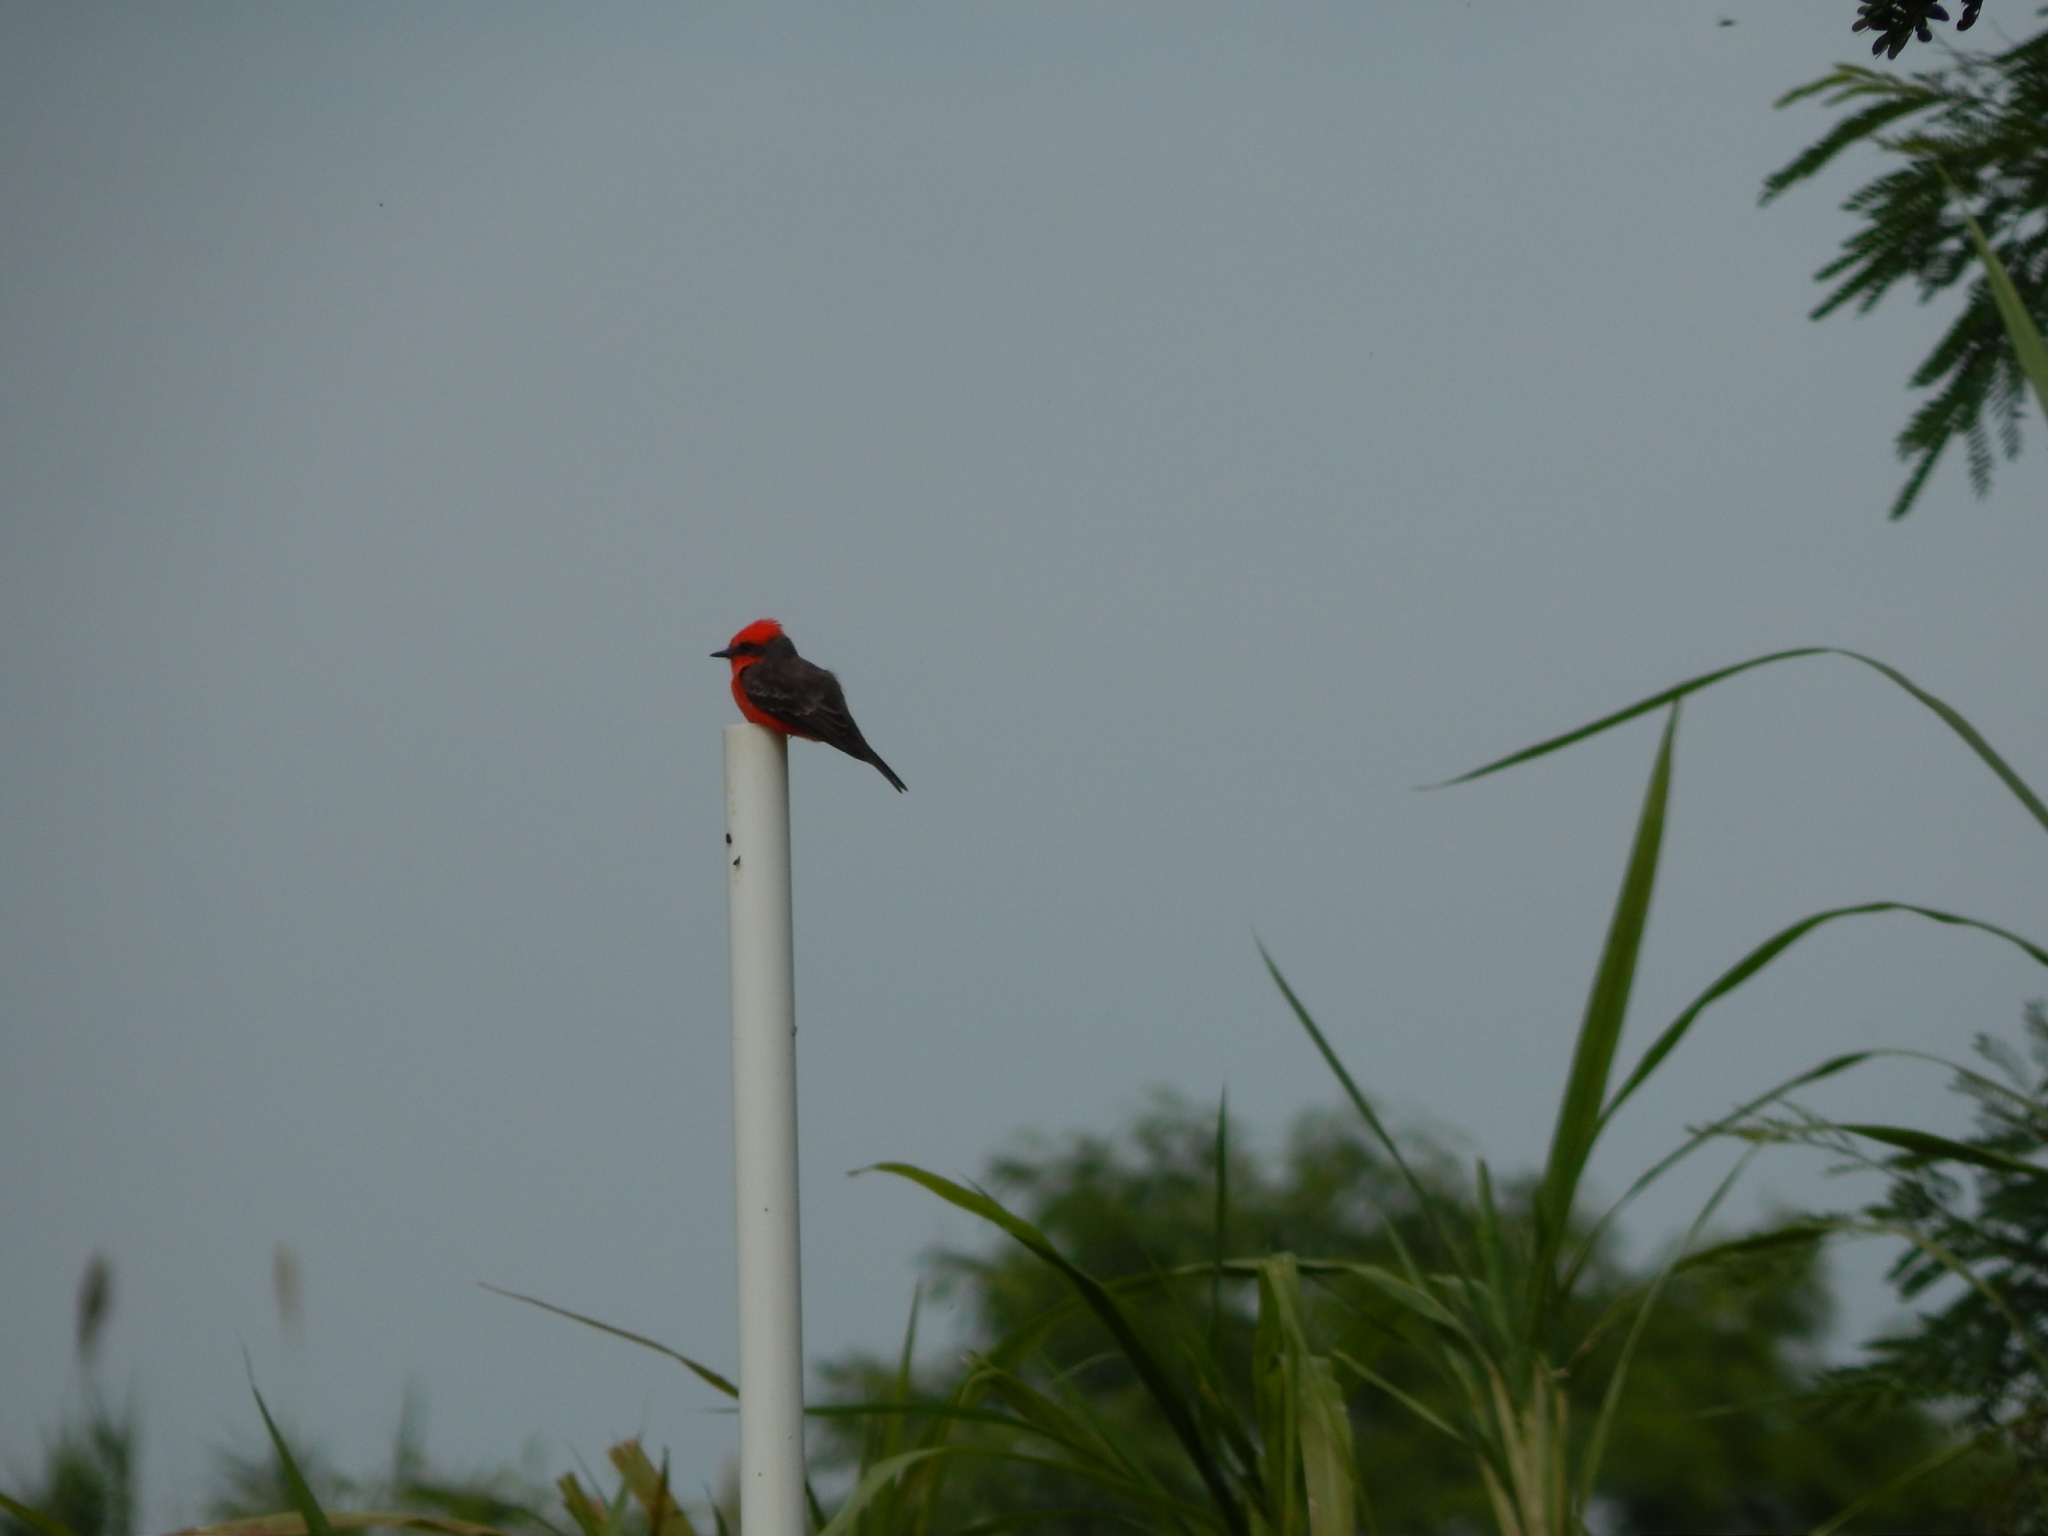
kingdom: Animalia
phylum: Chordata
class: Aves
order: Passeriformes
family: Tyrannidae
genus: Pyrocephalus
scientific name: Pyrocephalus rubinus
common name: Vermilion flycatcher
